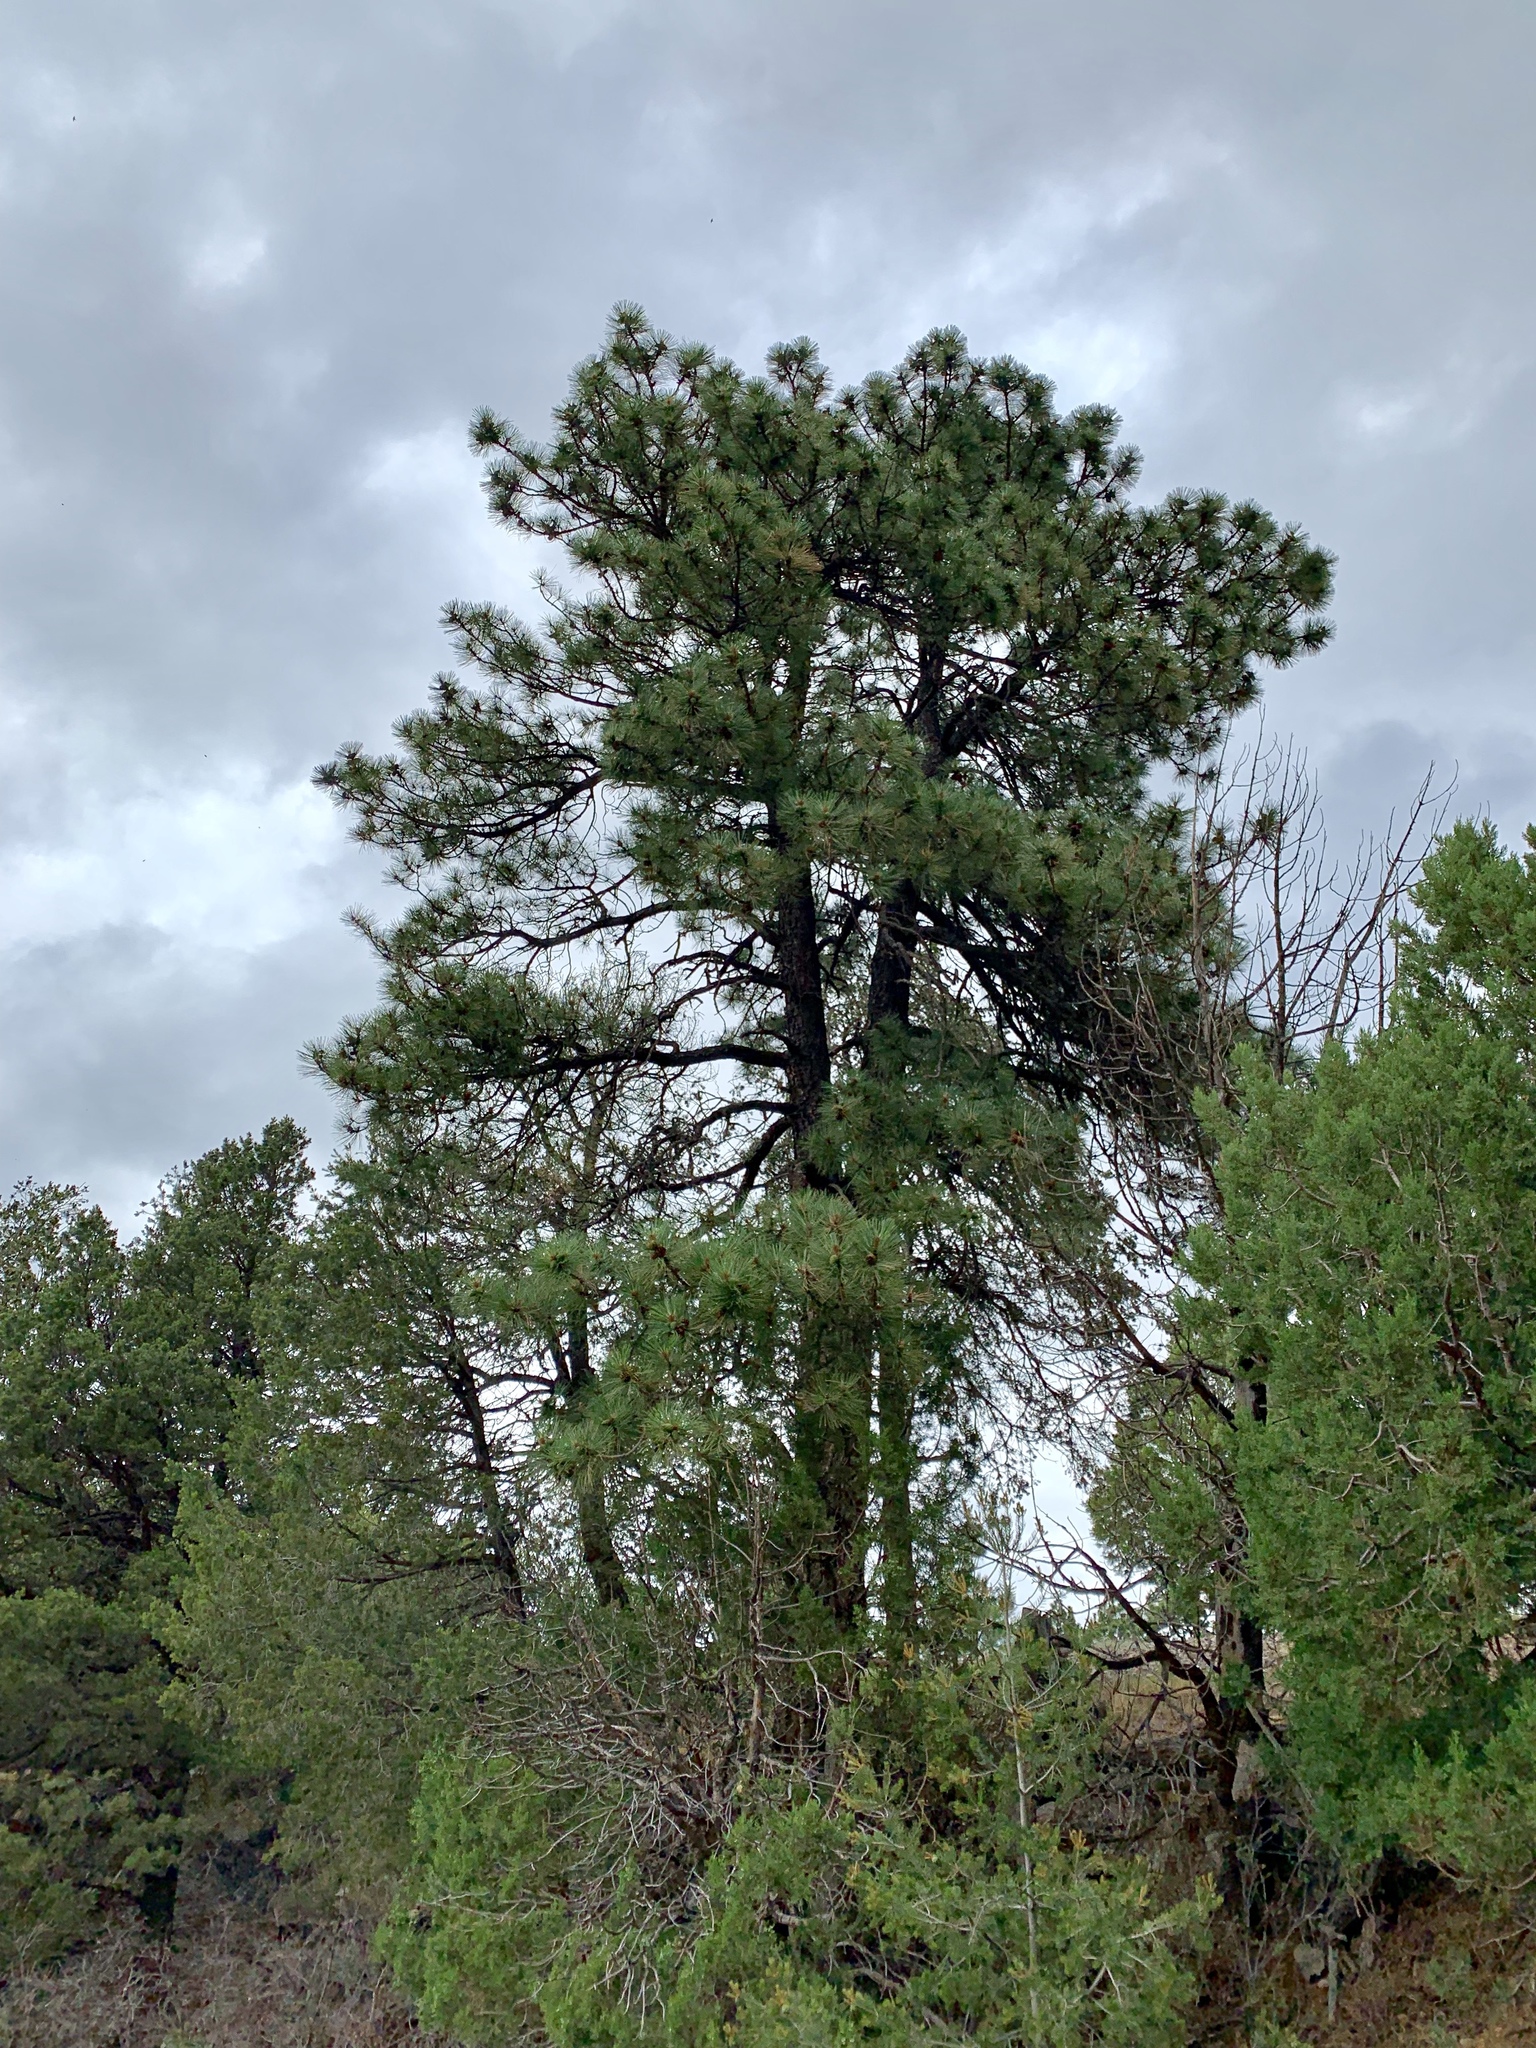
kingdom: Plantae
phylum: Tracheophyta
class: Pinopsida
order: Pinales
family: Pinaceae
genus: Pinus
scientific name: Pinus ponderosa
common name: Western yellow-pine
